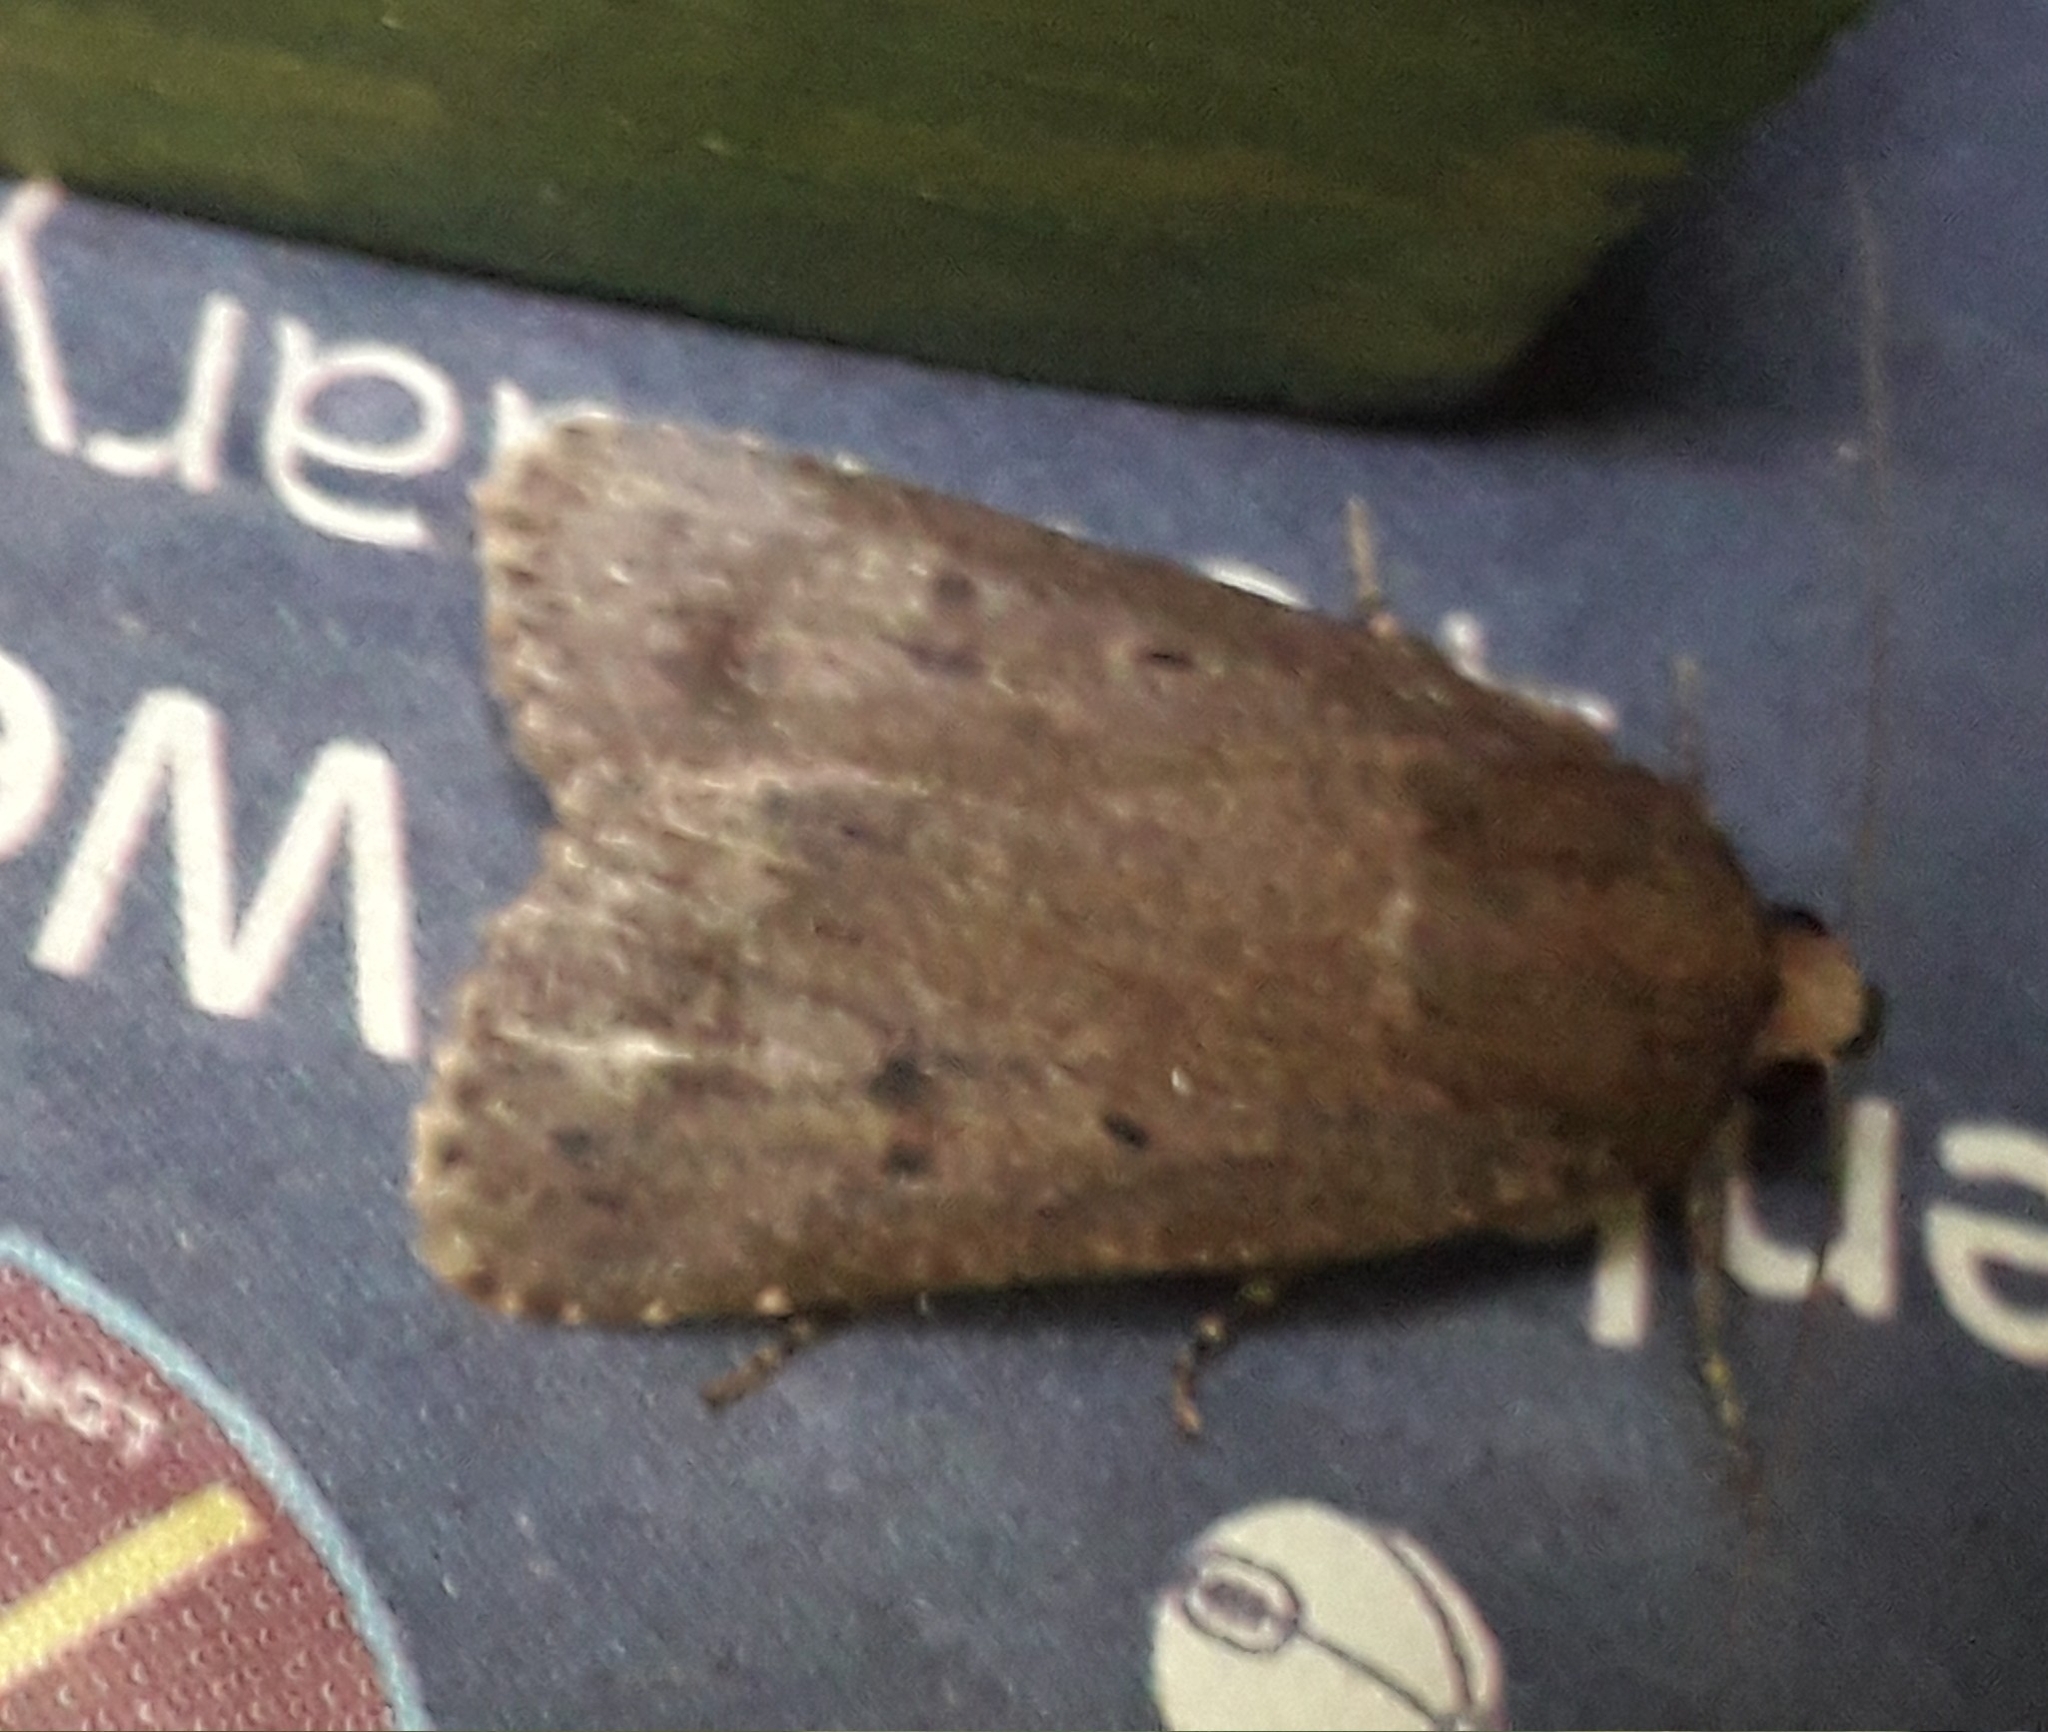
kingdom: Animalia
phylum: Arthropoda
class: Insecta
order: Lepidoptera
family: Noctuidae
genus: Amphipyra
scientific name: Amphipyra tragopoginis
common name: Mouse moth
